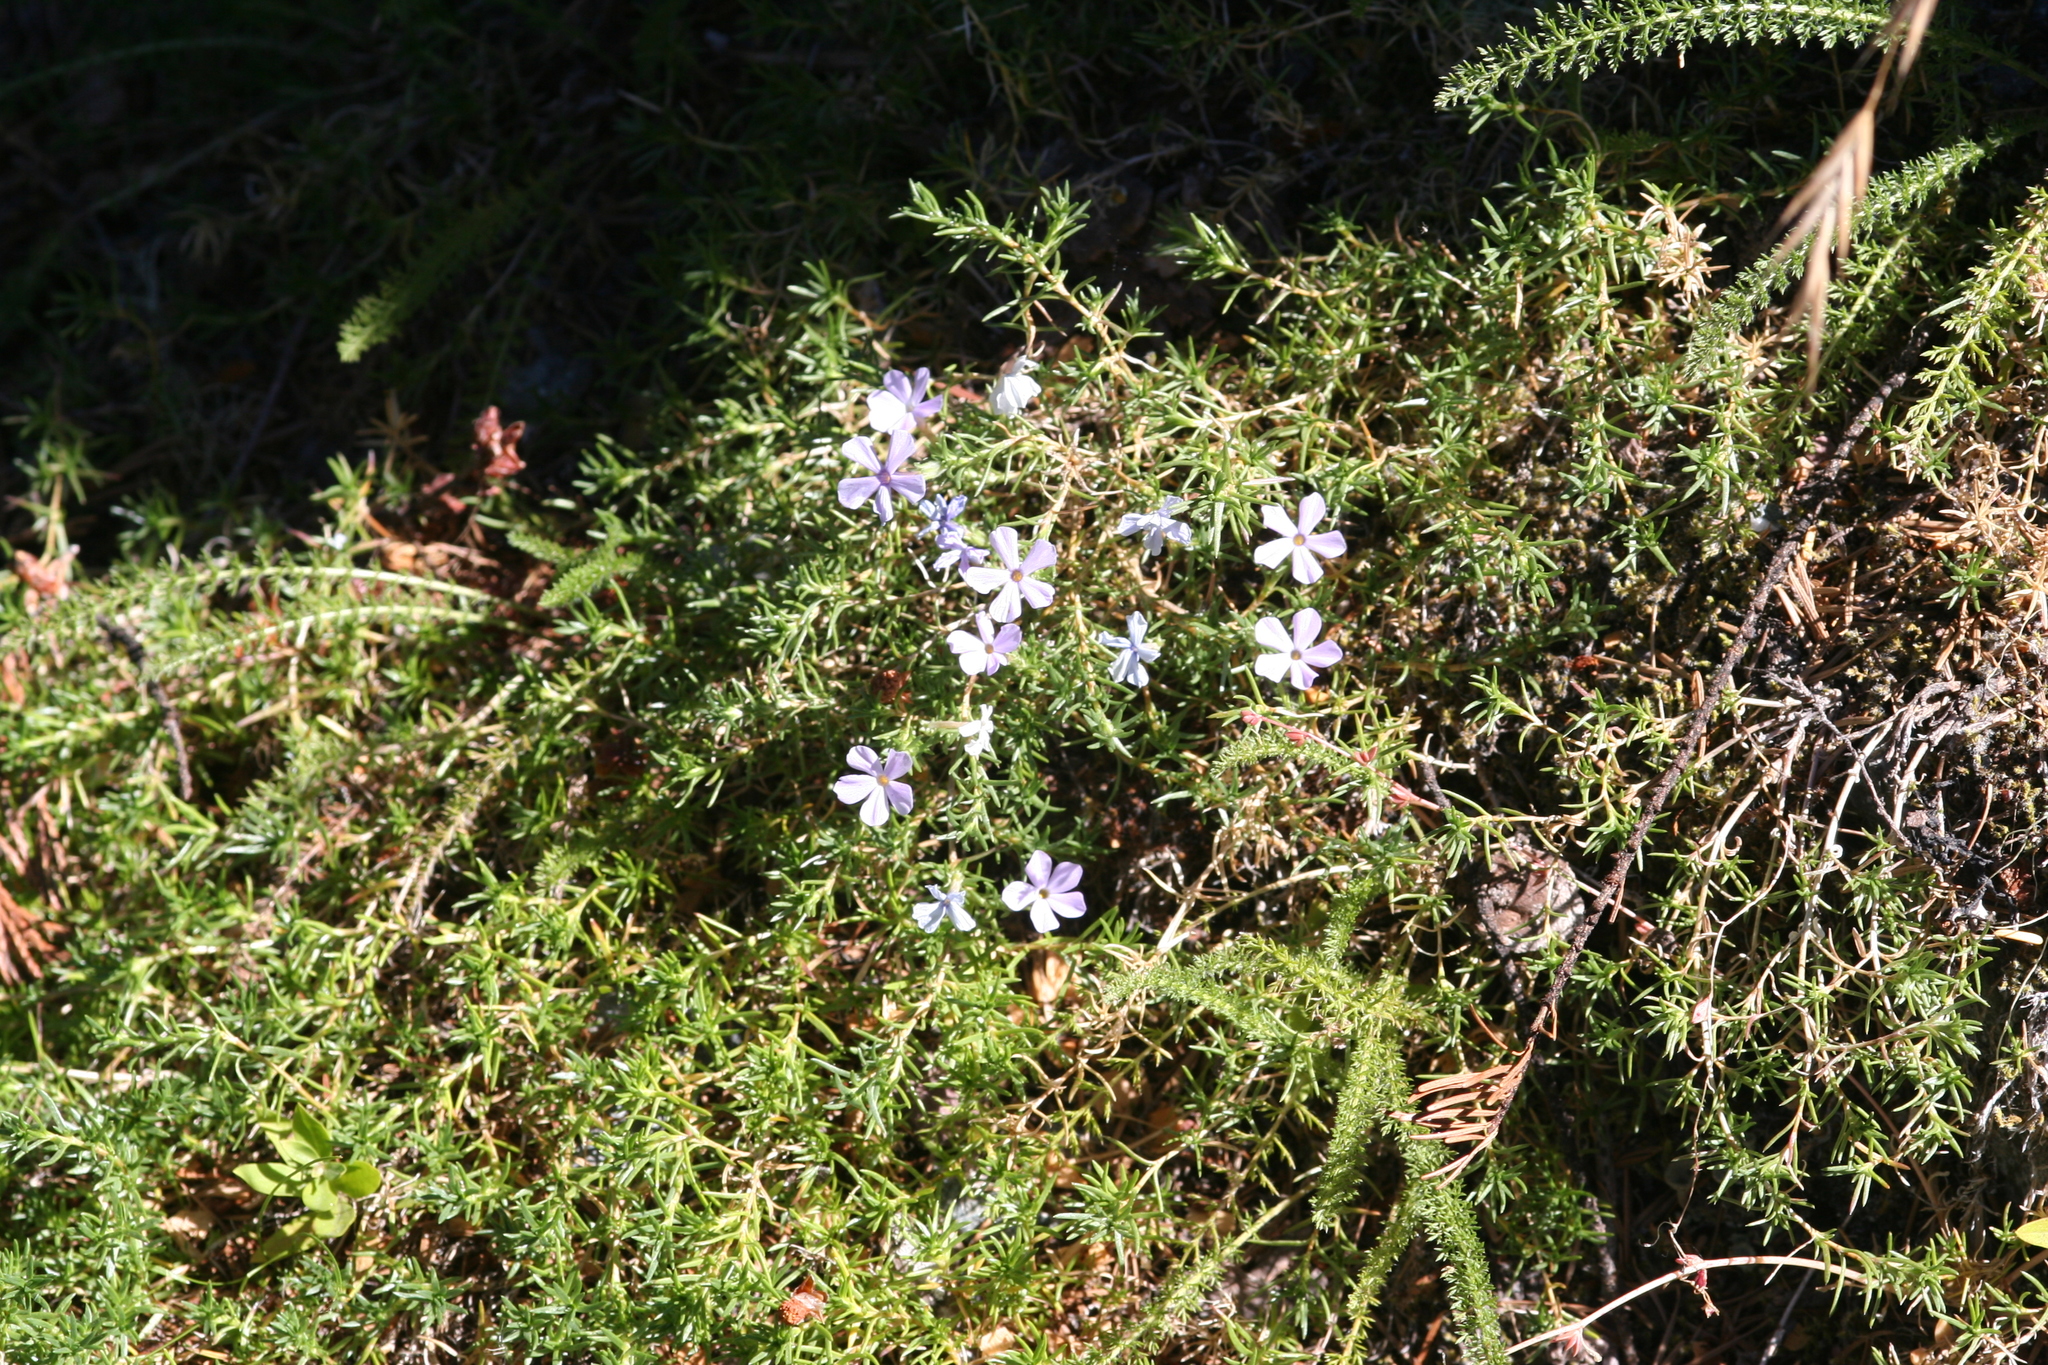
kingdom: Plantae
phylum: Tracheophyta
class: Magnoliopsida
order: Ericales
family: Polemoniaceae
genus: Phlox
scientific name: Phlox diffusa
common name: Mat phlox
